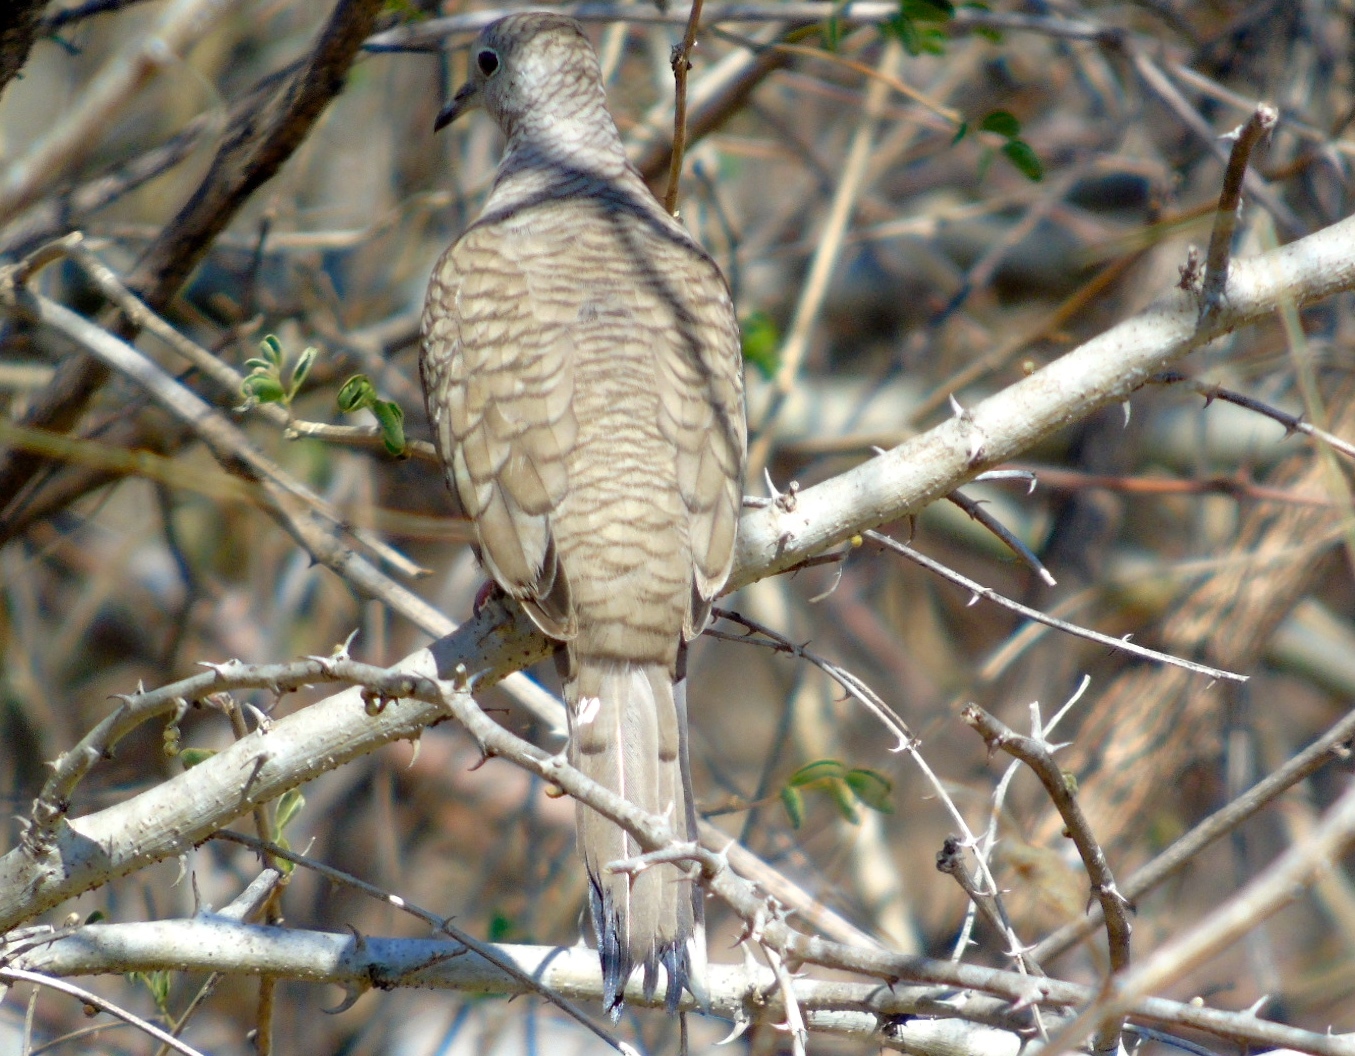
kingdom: Animalia
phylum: Chordata
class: Aves
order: Columbiformes
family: Columbidae
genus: Columbina
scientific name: Columbina inca
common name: Inca dove
